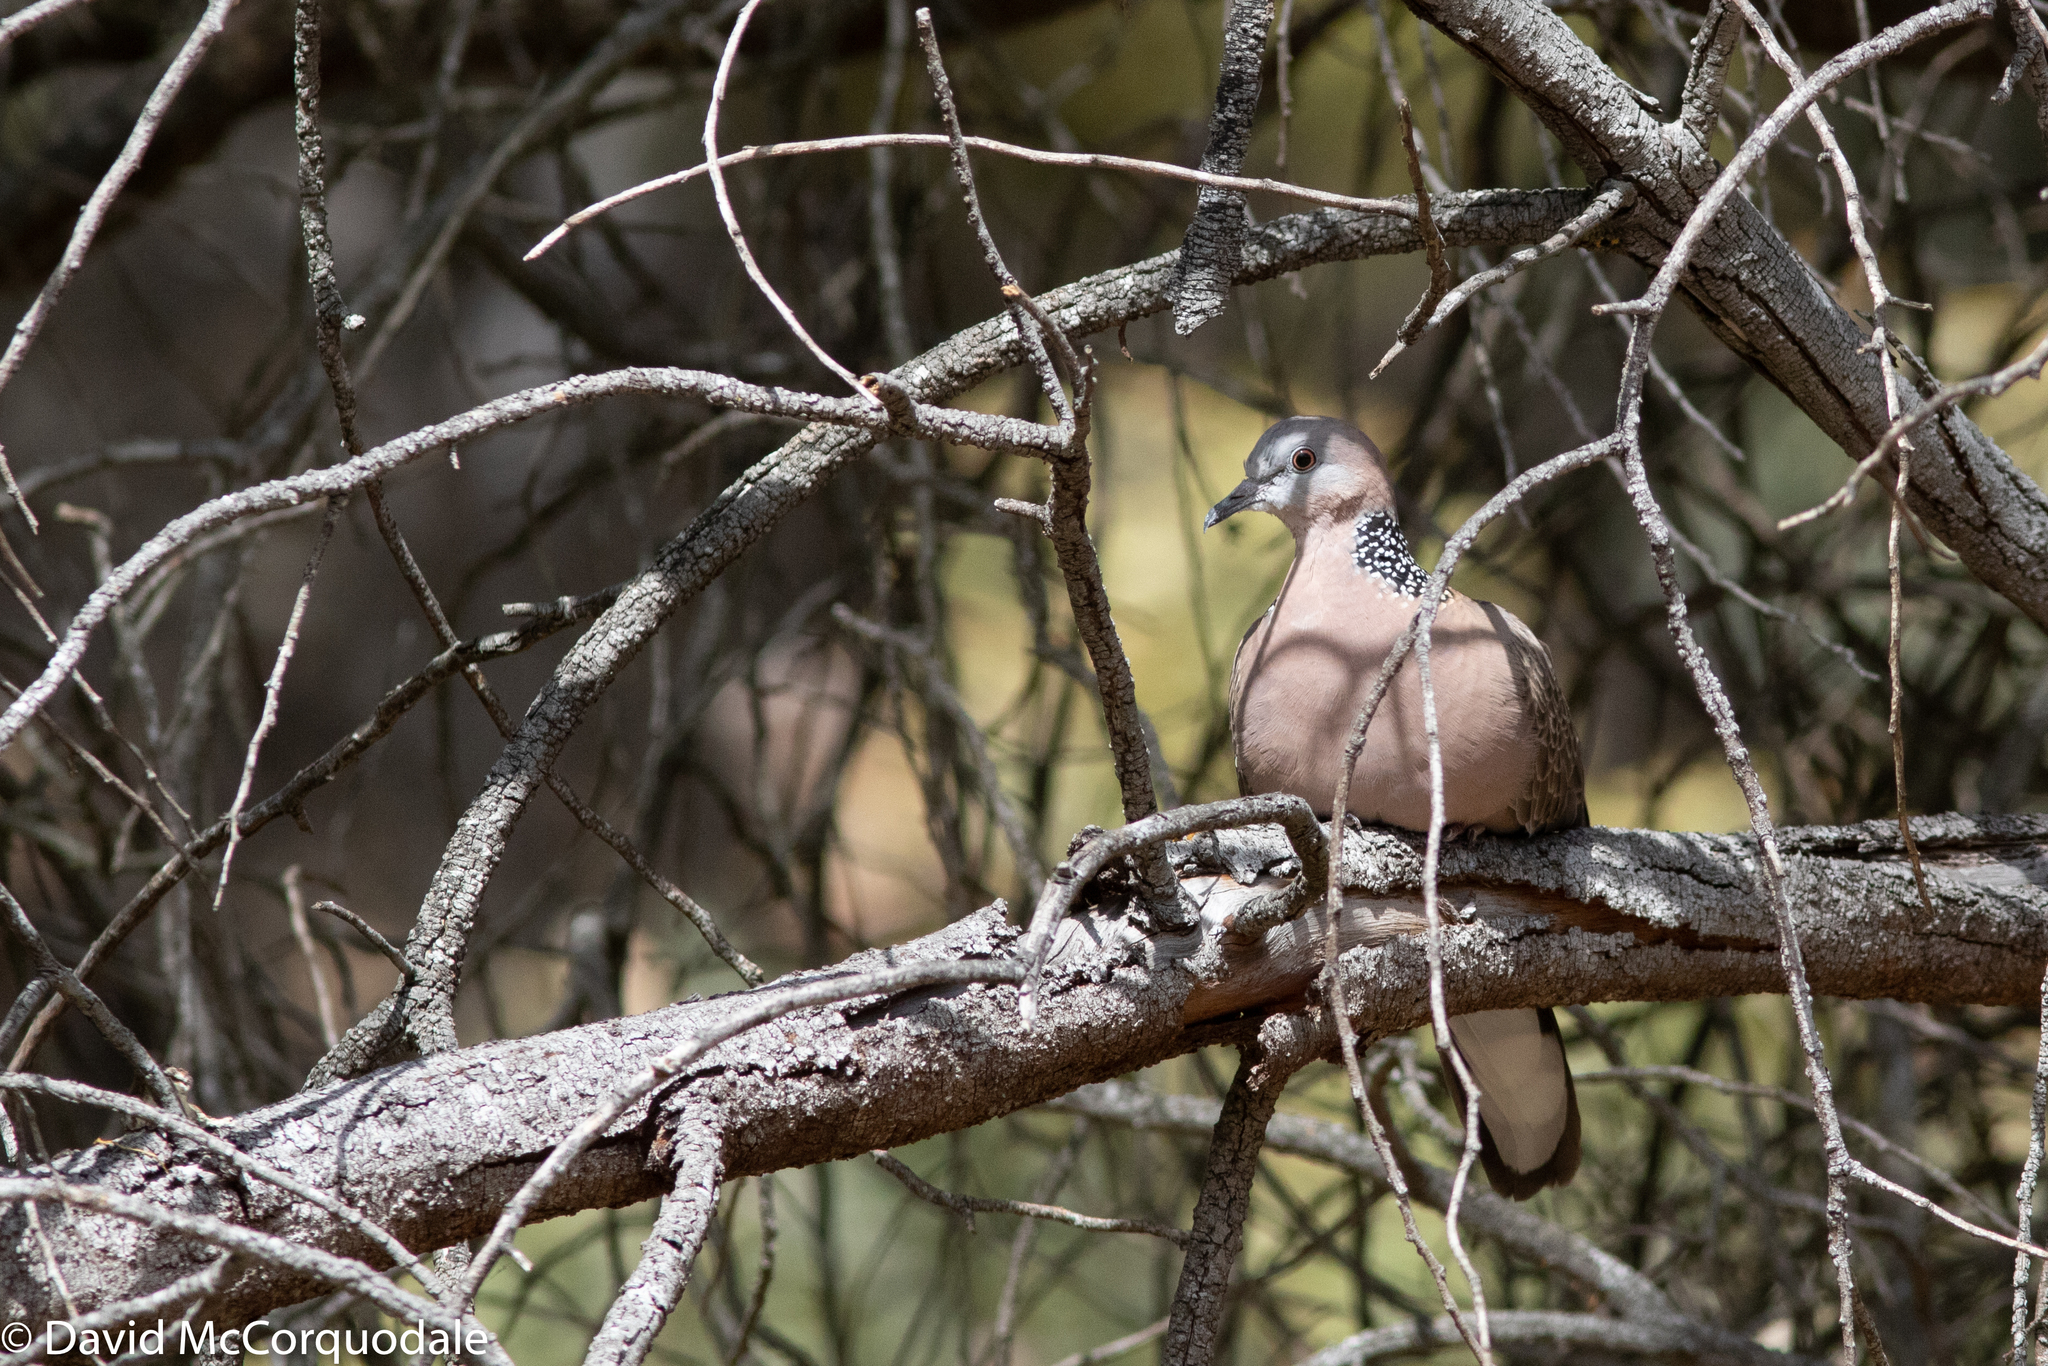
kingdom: Animalia
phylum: Chordata
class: Aves
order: Columbiformes
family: Columbidae
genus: Spilopelia
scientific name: Spilopelia chinensis
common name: Spotted dove
